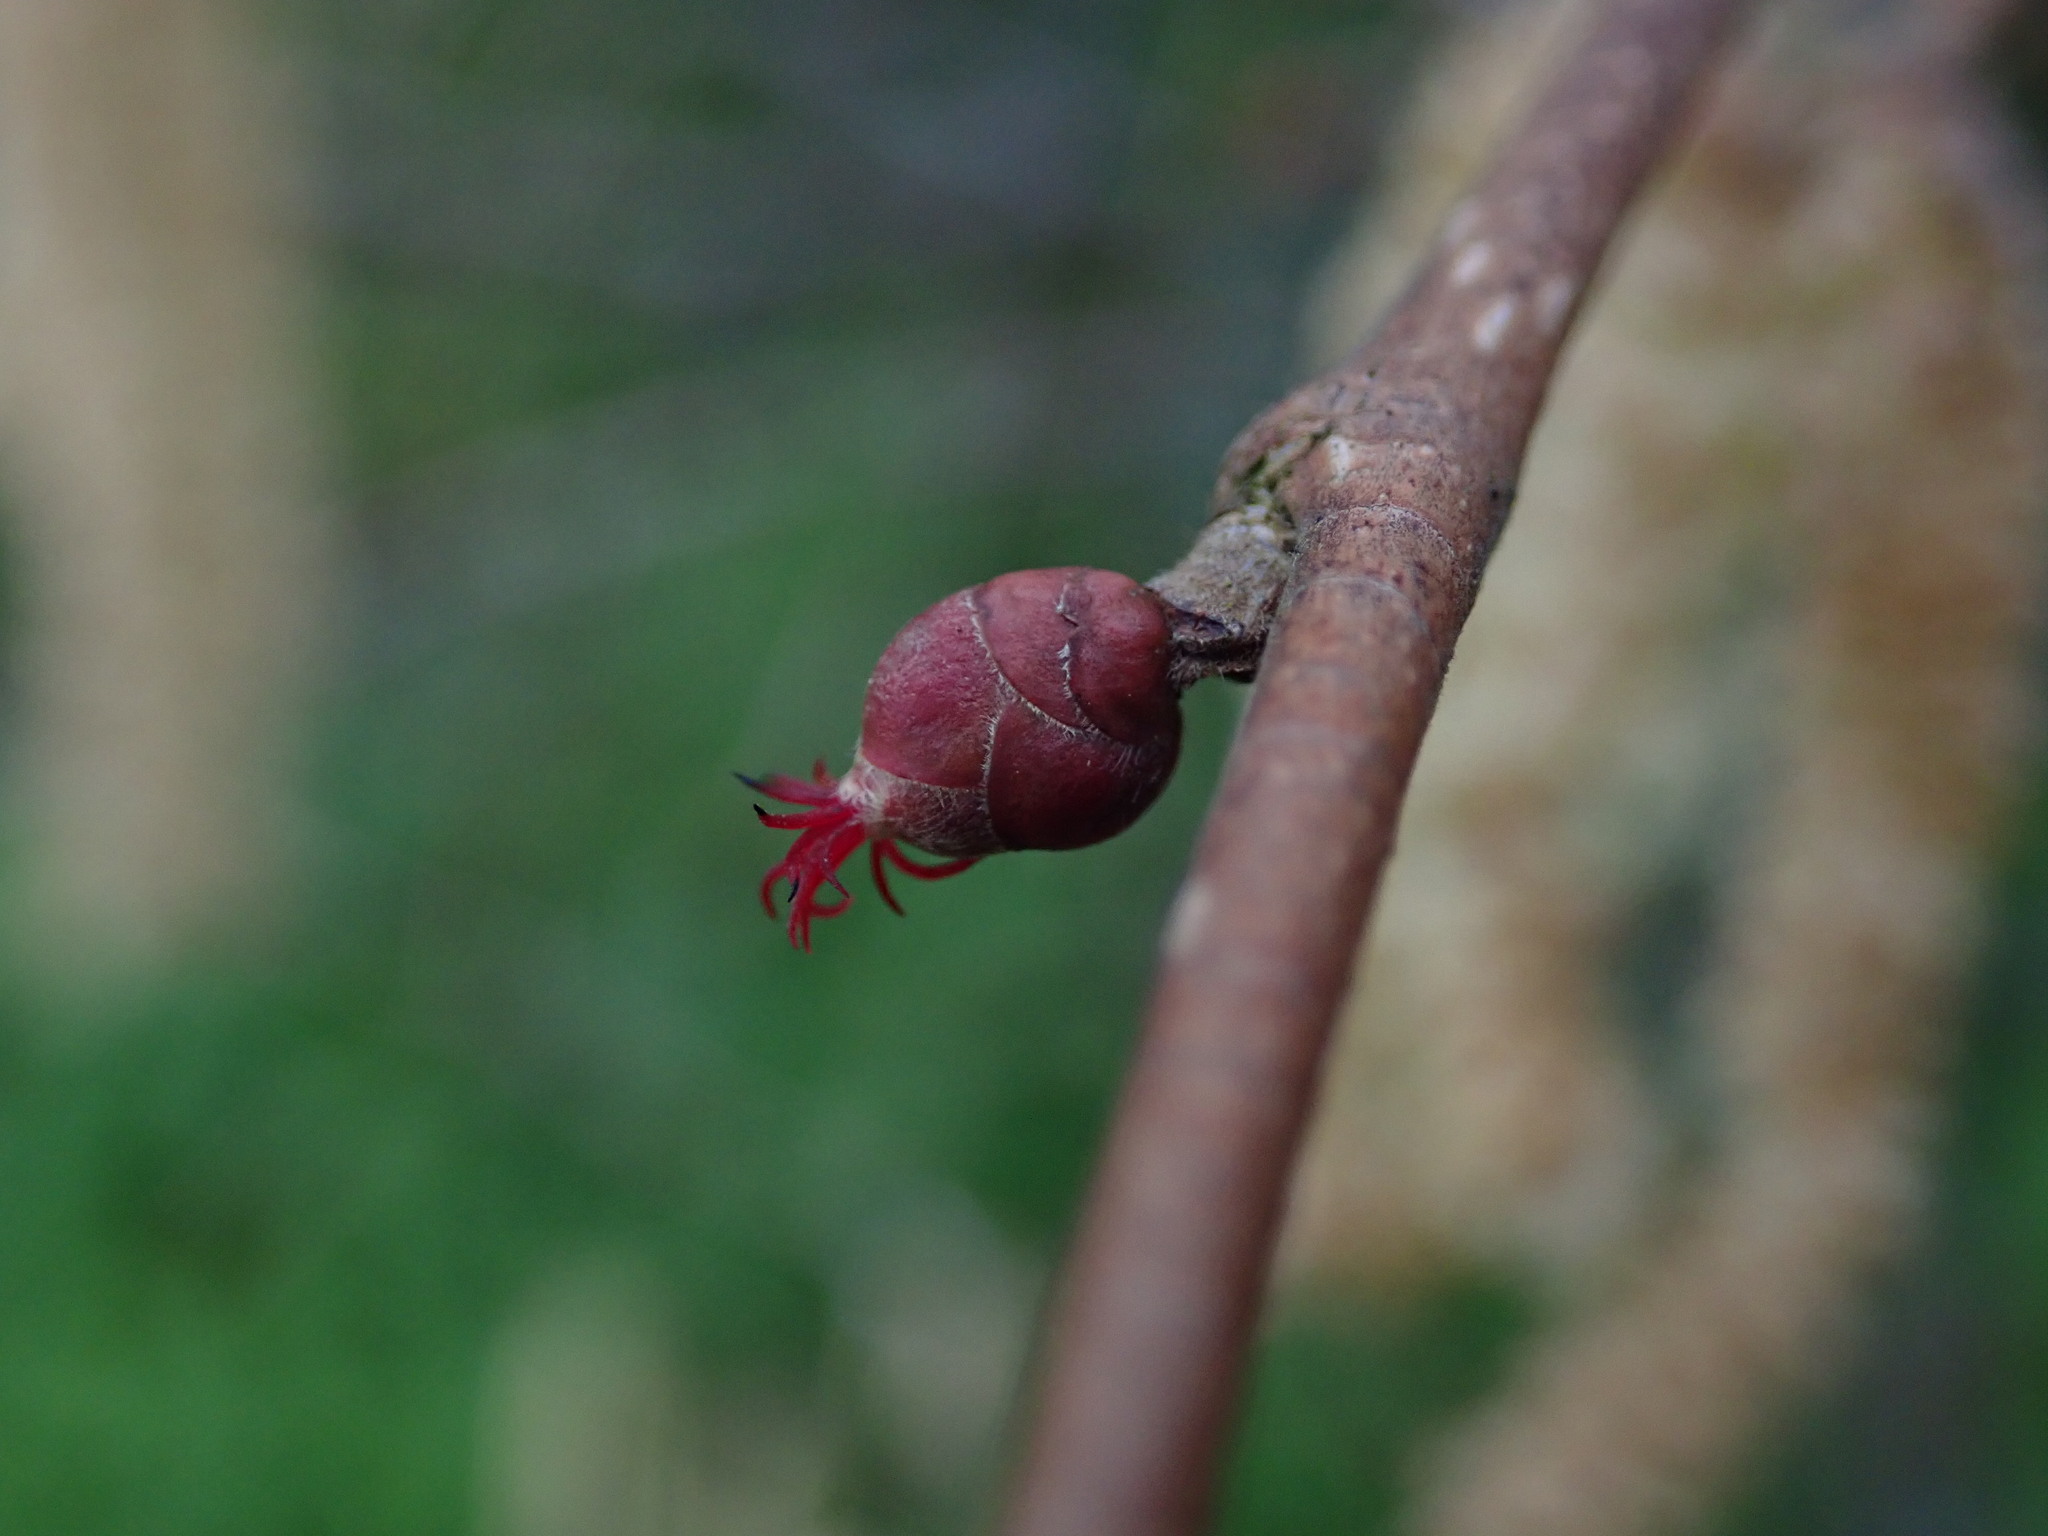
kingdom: Plantae
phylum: Tracheophyta
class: Magnoliopsida
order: Fagales
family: Betulaceae
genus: Corylus
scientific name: Corylus avellana
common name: European hazel
